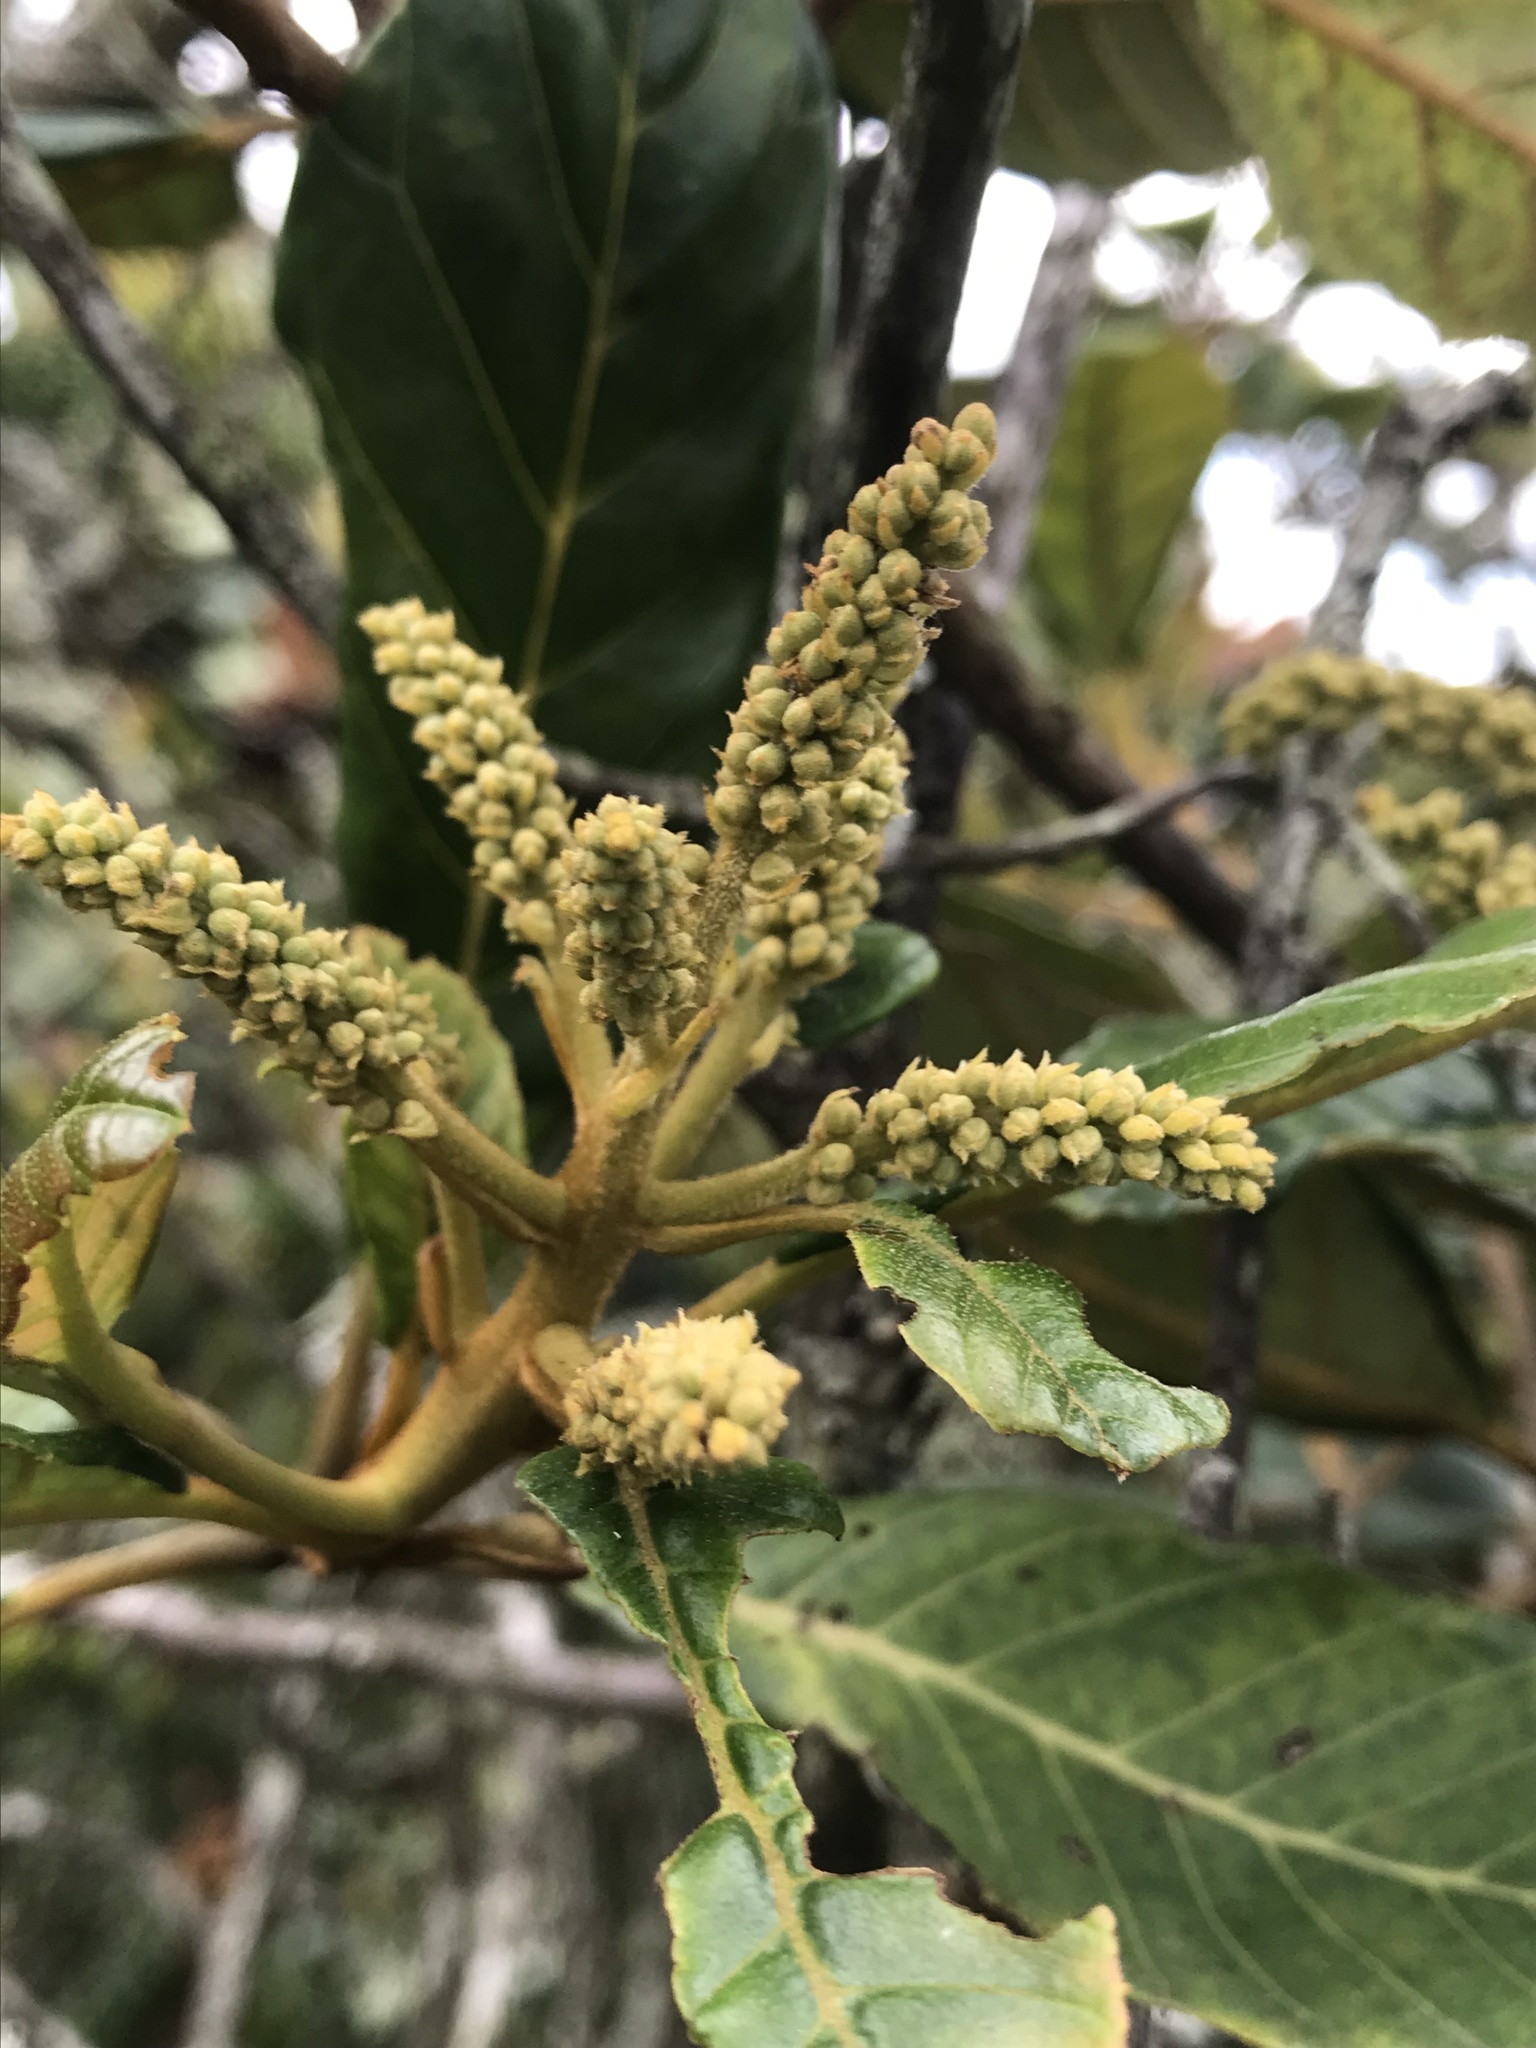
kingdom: Plantae
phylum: Tracheophyta
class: Magnoliopsida
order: Ericales
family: Clethraceae
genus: Clethra
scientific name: Clethra fagifolia
